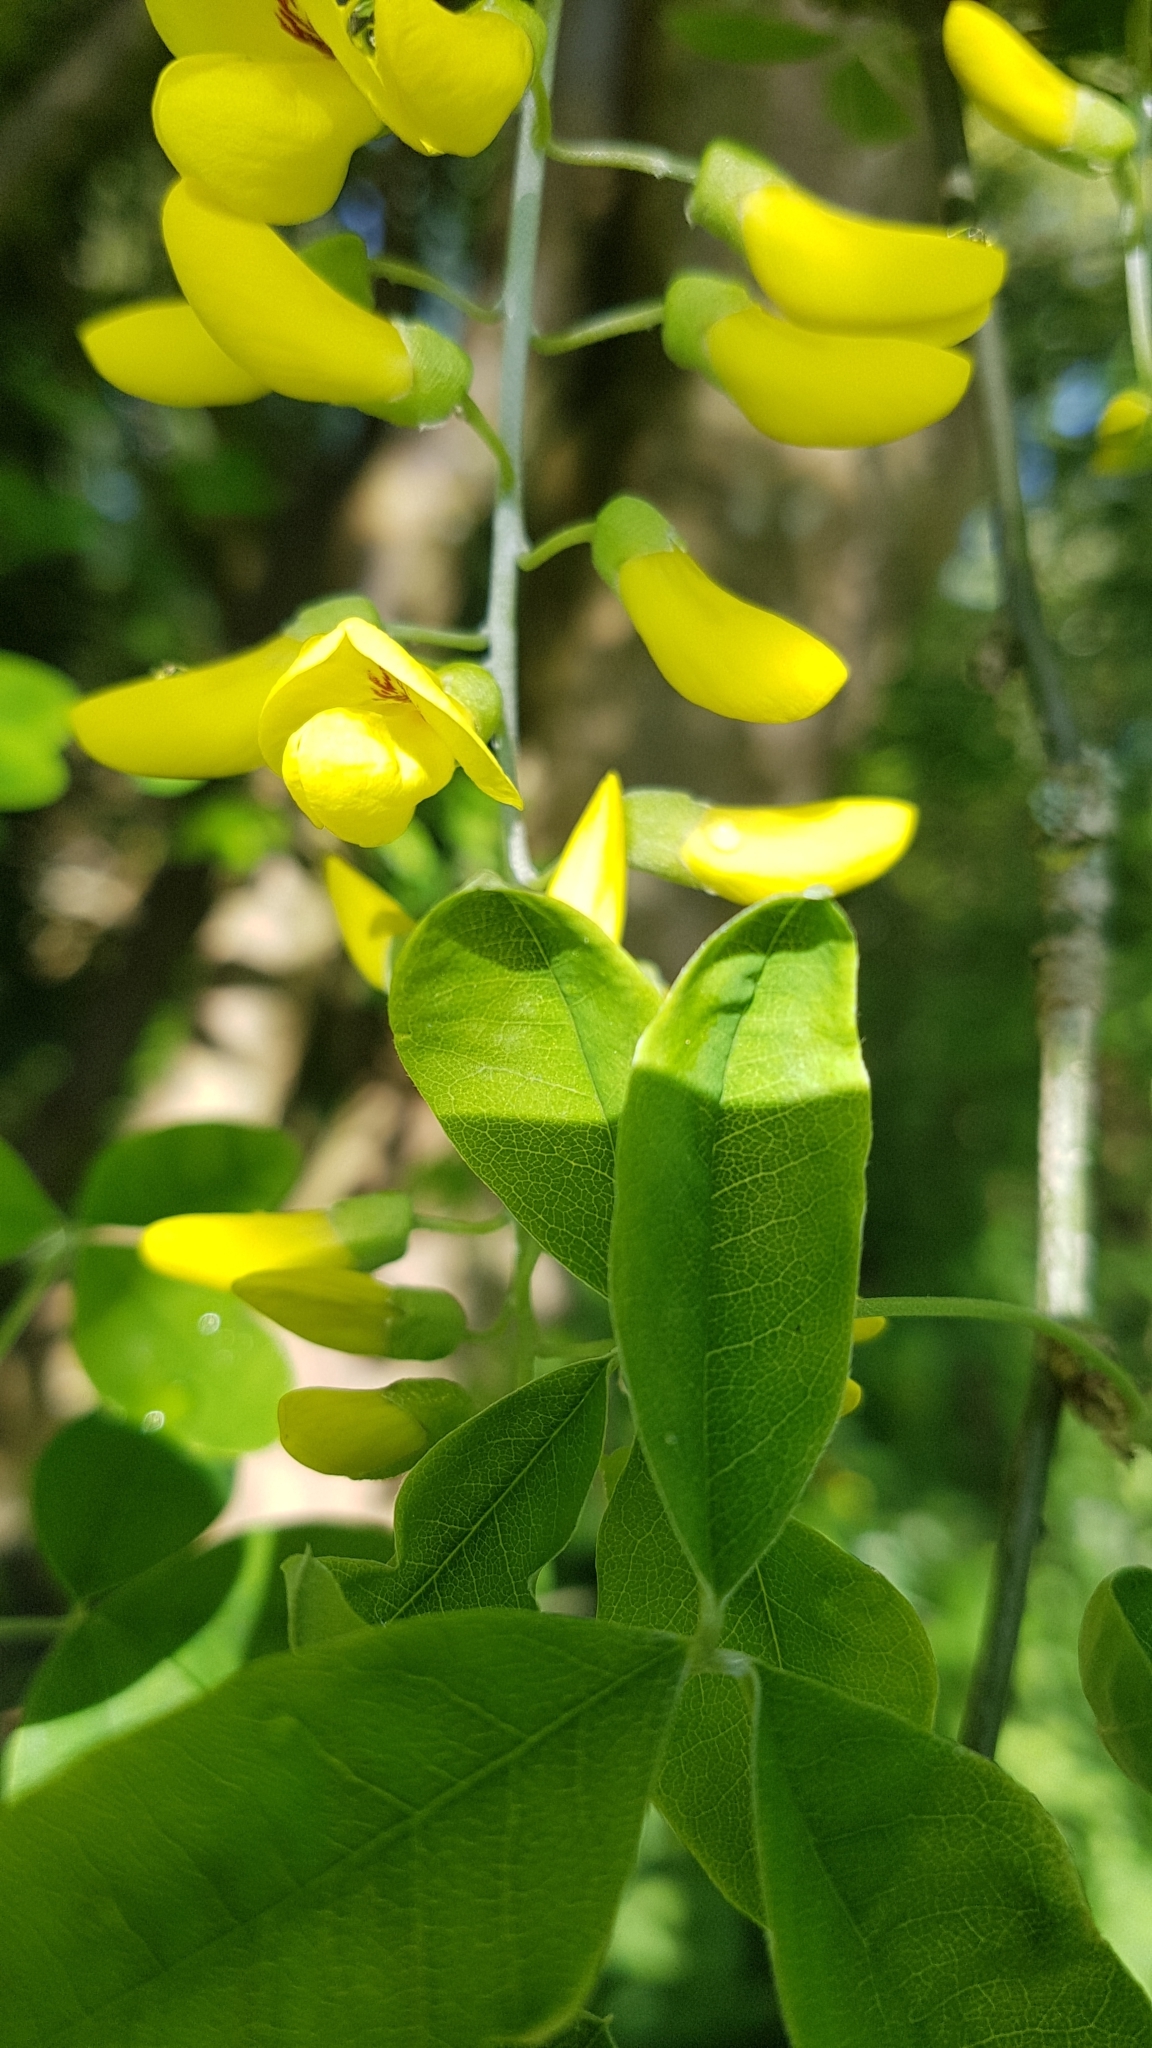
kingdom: Plantae
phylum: Tracheophyta
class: Magnoliopsida
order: Fabales
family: Fabaceae
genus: Laburnum
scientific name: Laburnum anagyroides
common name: Laburnum
